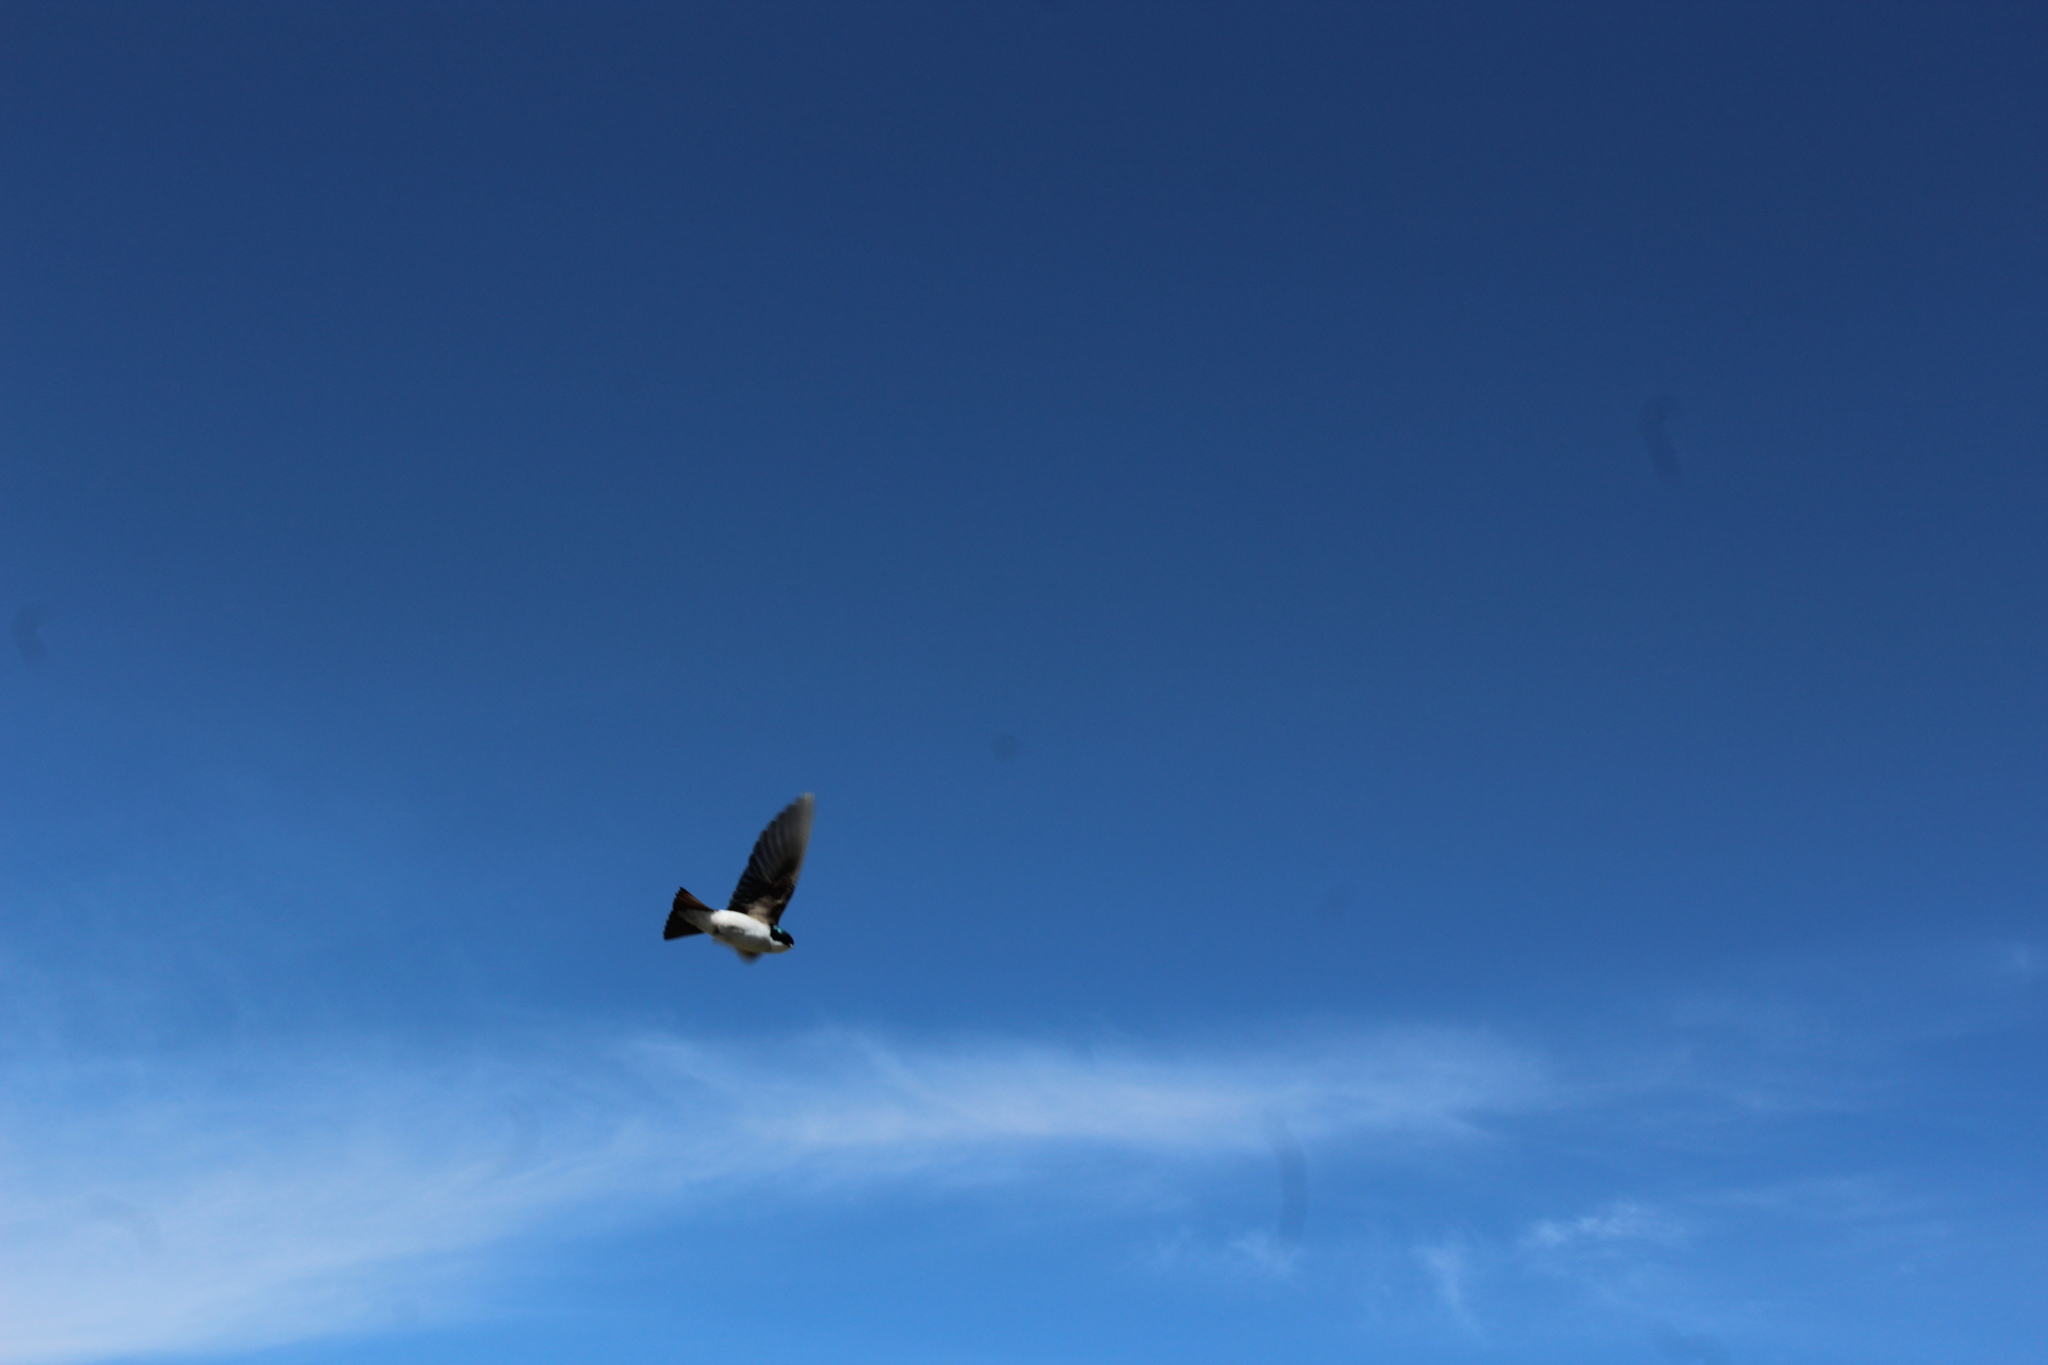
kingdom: Animalia
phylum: Chordata
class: Aves
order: Passeriformes
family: Hirundinidae
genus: Tachycineta
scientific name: Tachycineta bicolor
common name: Tree swallow
